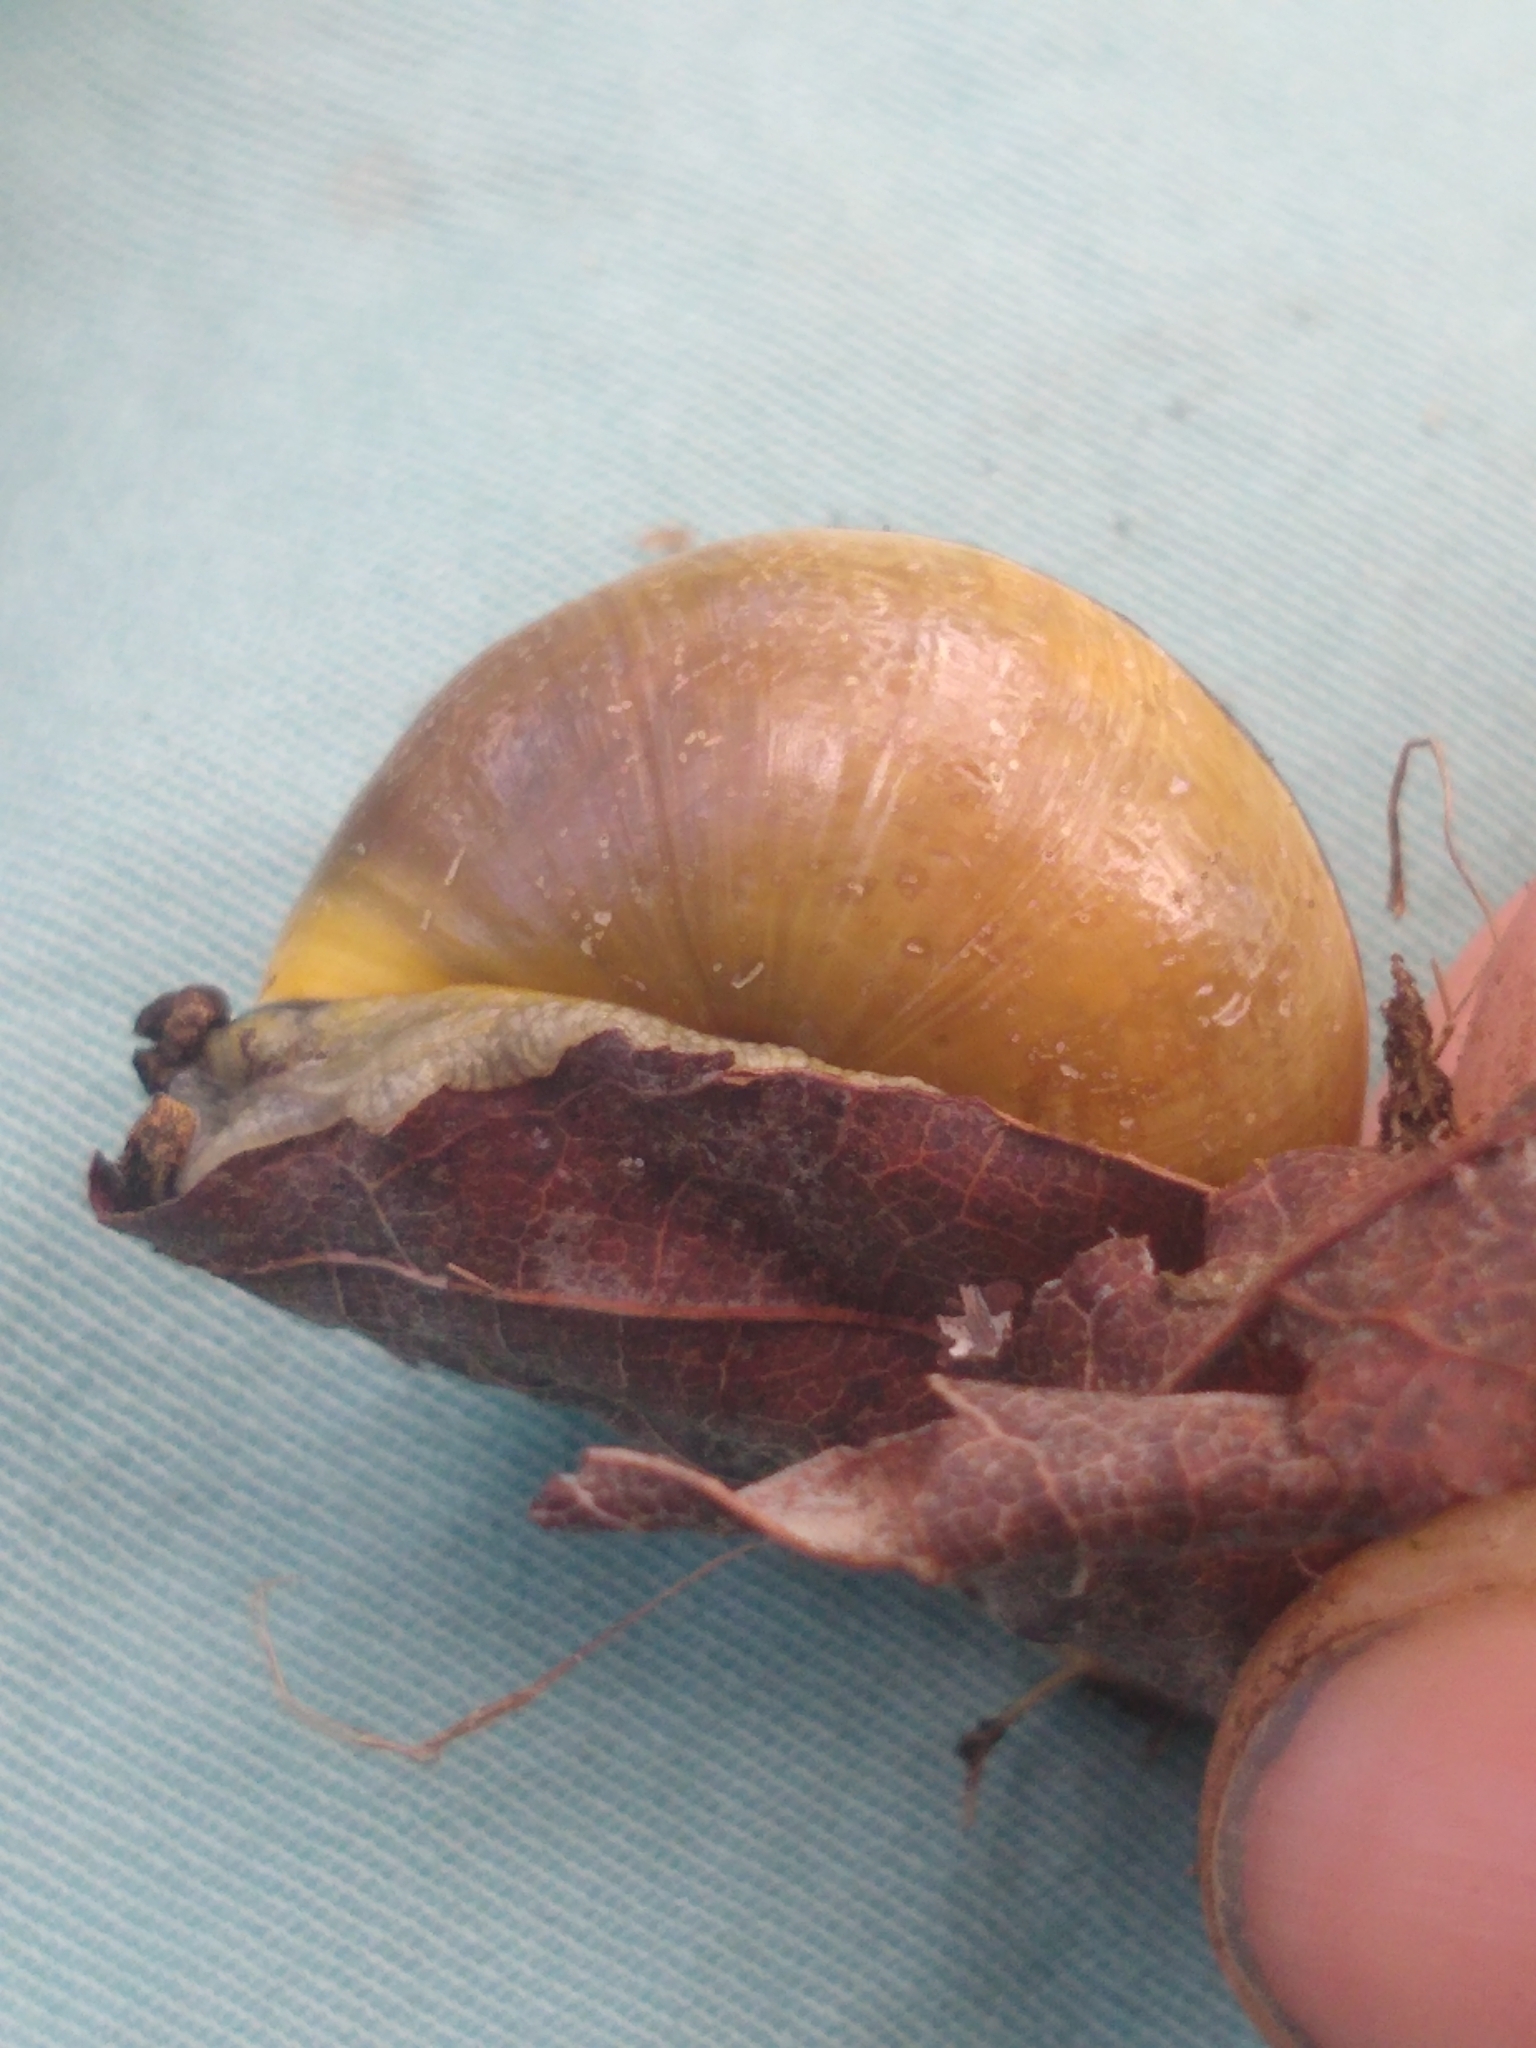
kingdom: Animalia
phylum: Mollusca
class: Gastropoda
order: Stylommatophora
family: Helicidae
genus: Cepaea
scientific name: Cepaea nemoralis
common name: Grovesnail
